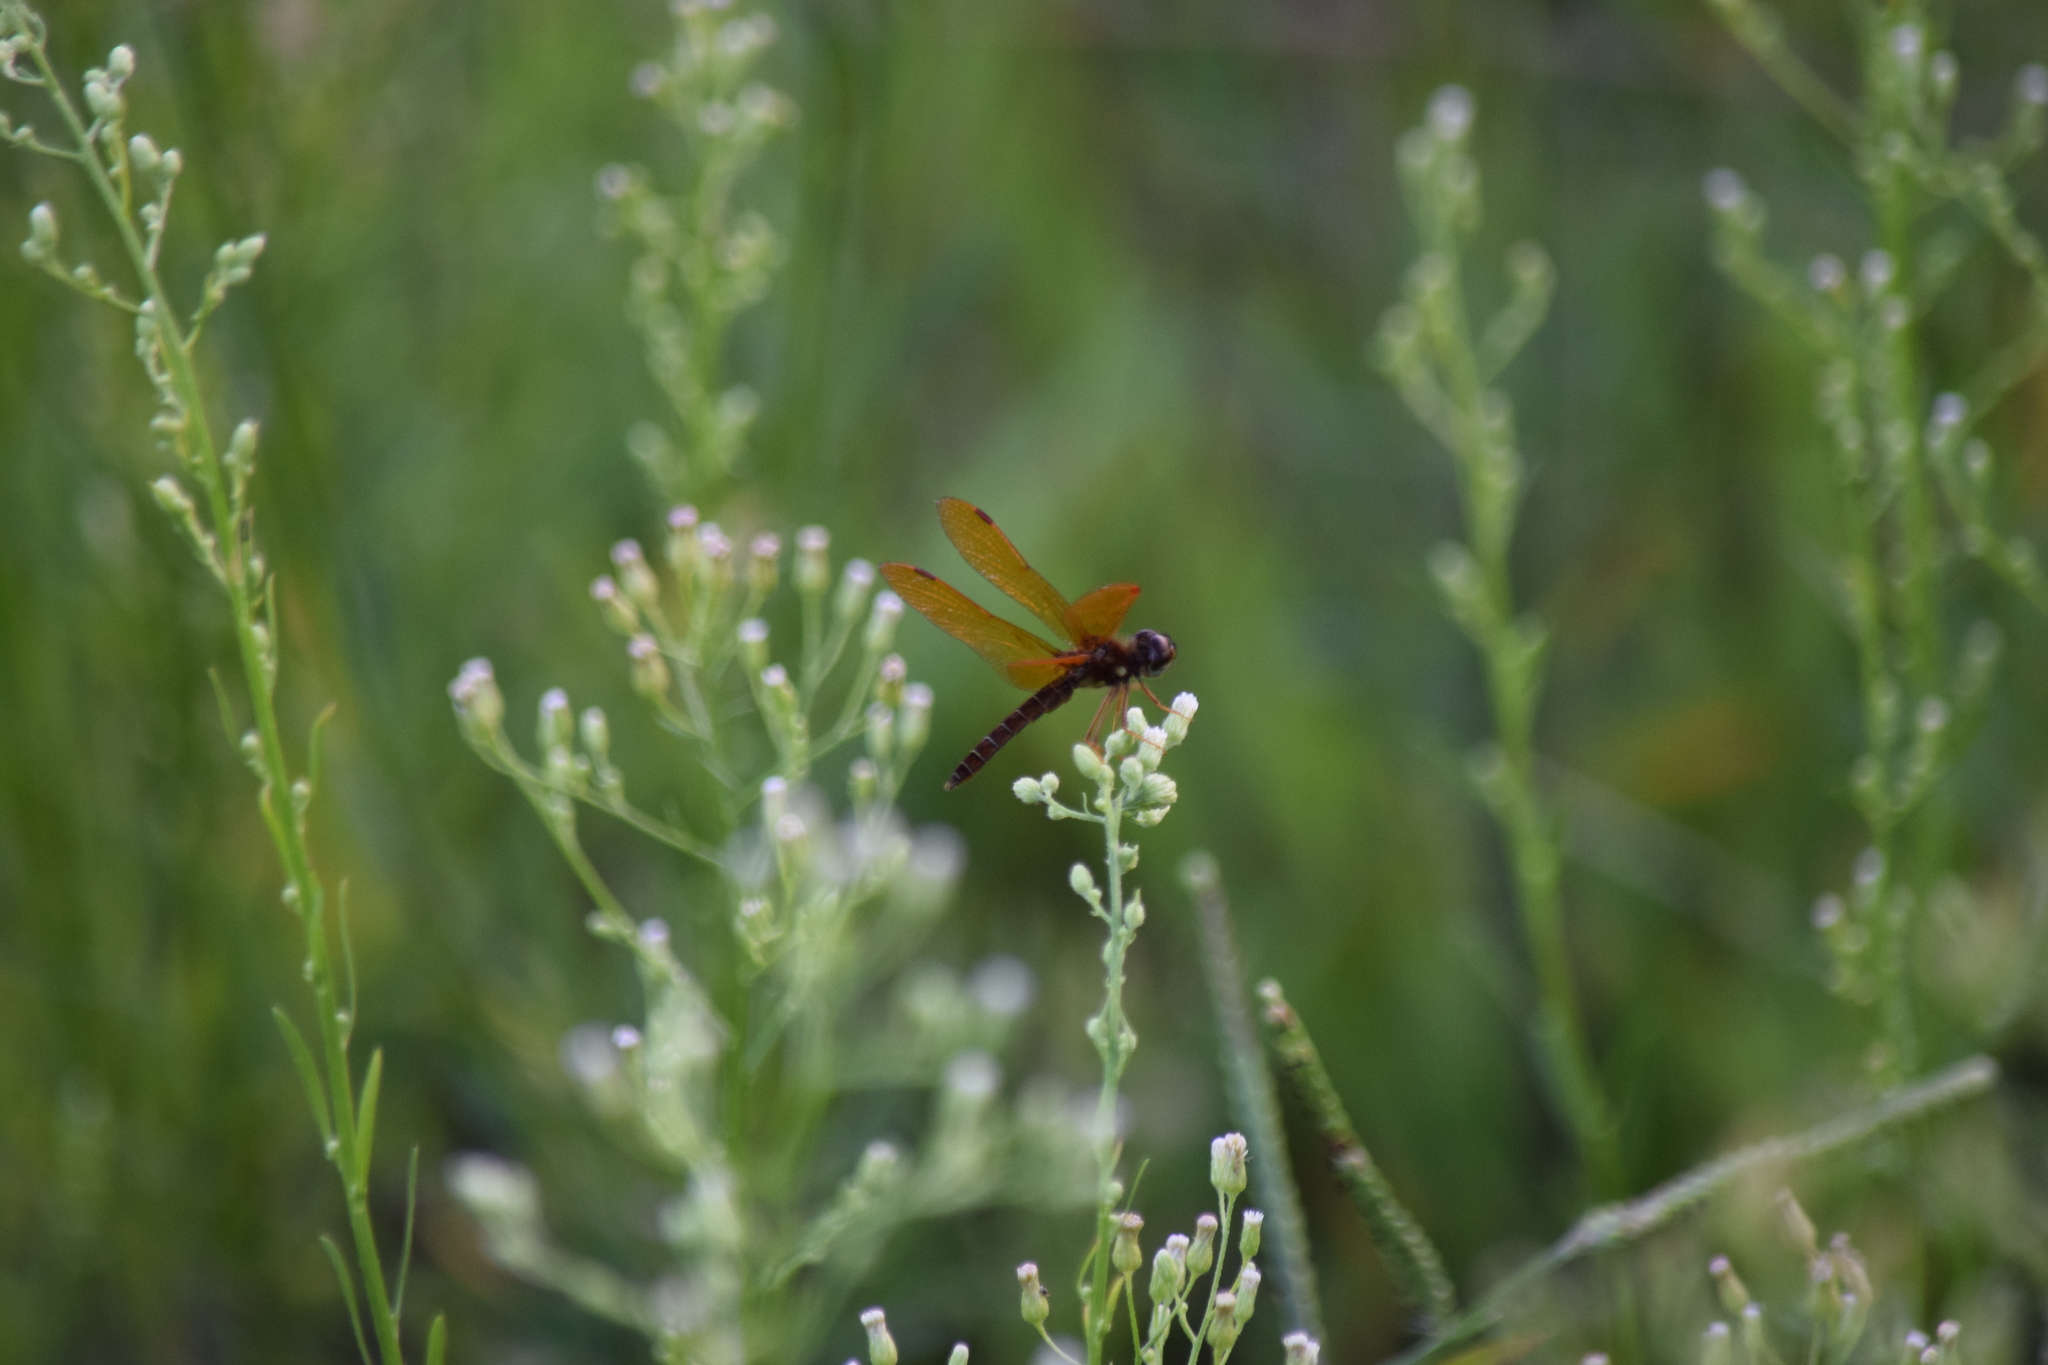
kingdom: Animalia
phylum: Arthropoda
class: Insecta
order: Odonata
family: Libellulidae
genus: Perithemis
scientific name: Perithemis tenera
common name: Eastern amberwing
